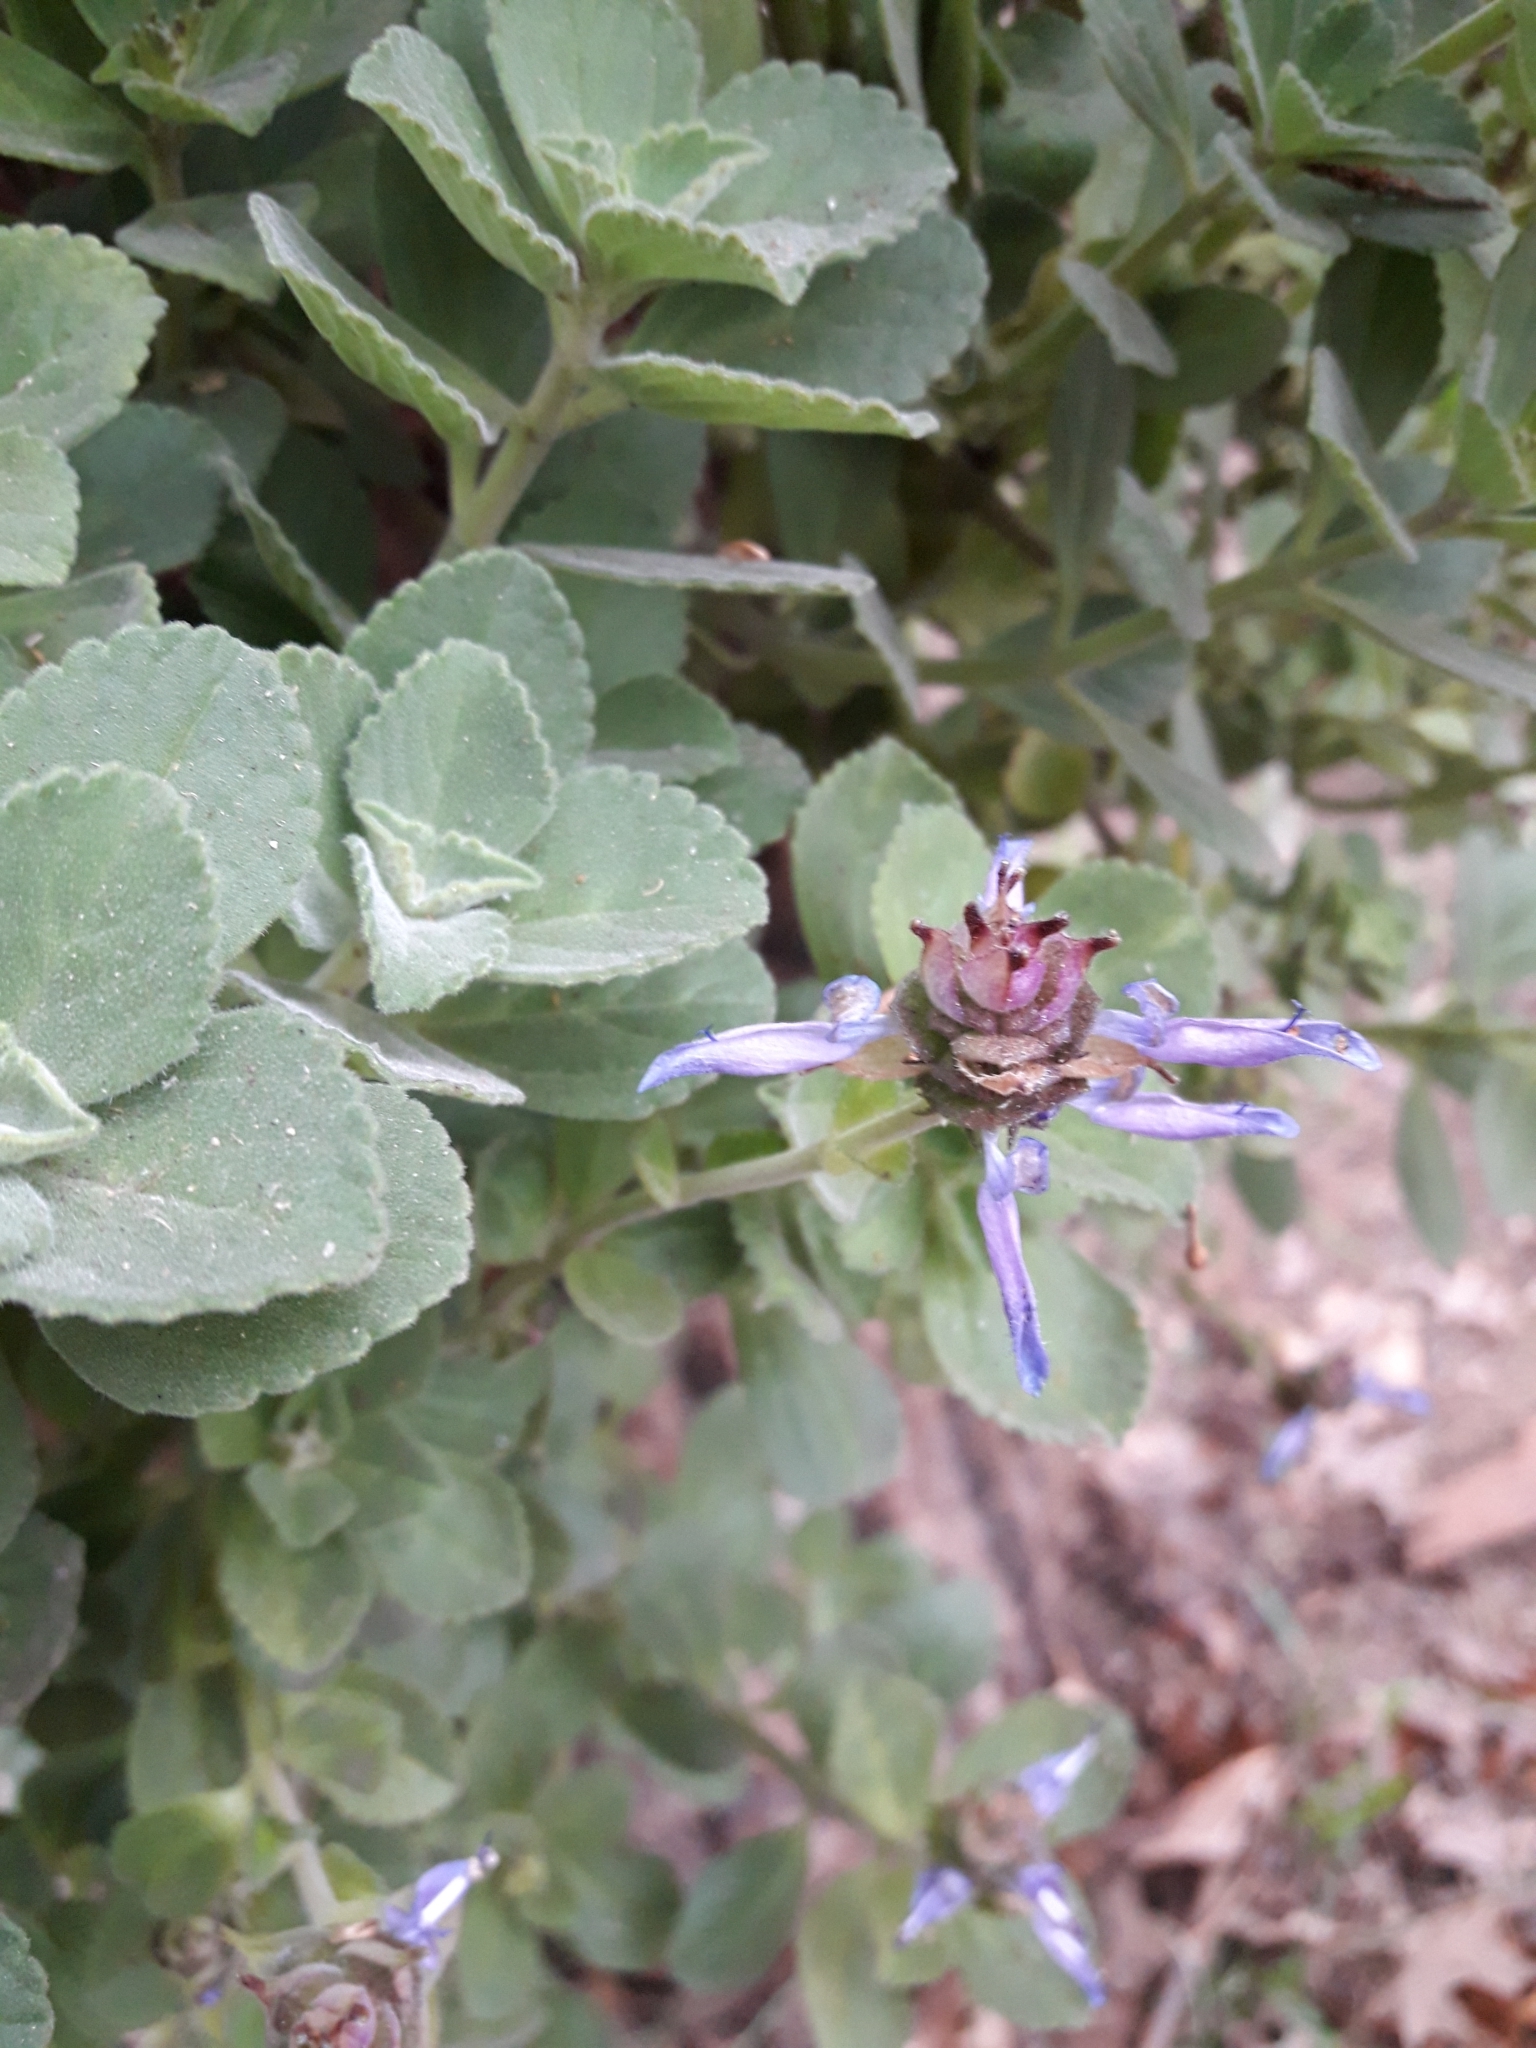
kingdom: Plantae
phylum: Tracheophyta
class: Magnoliopsida
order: Lamiales
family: Lamiaceae
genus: Coleus
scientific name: Coleus neochilus
